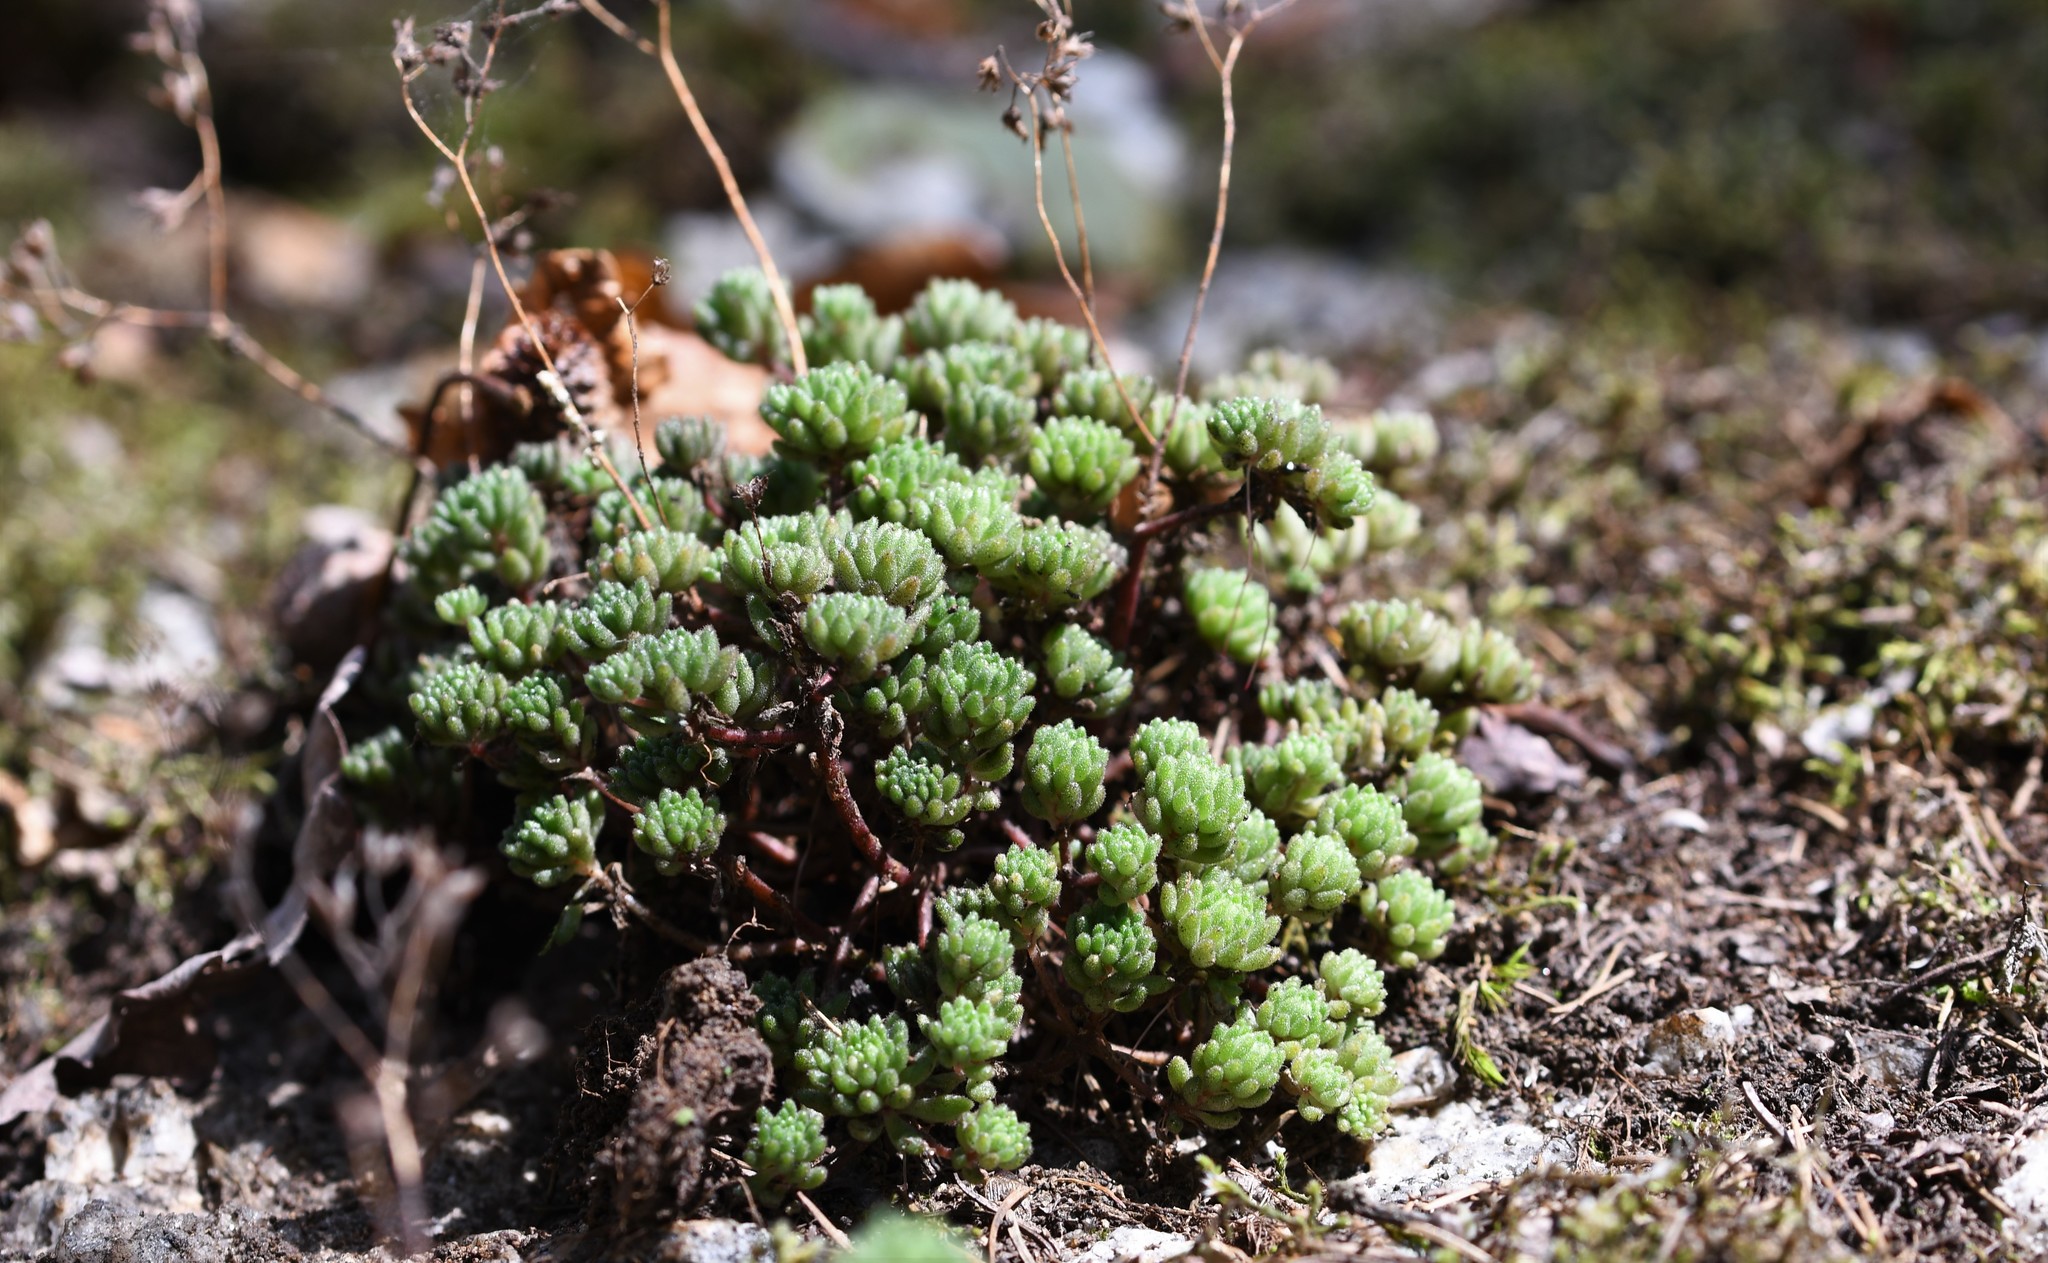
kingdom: Plantae
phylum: Tracheophyta
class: Magnoliopsida
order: Saxifragales
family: Crassulaceae
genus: Sedum
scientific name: Sedum hirsutum
